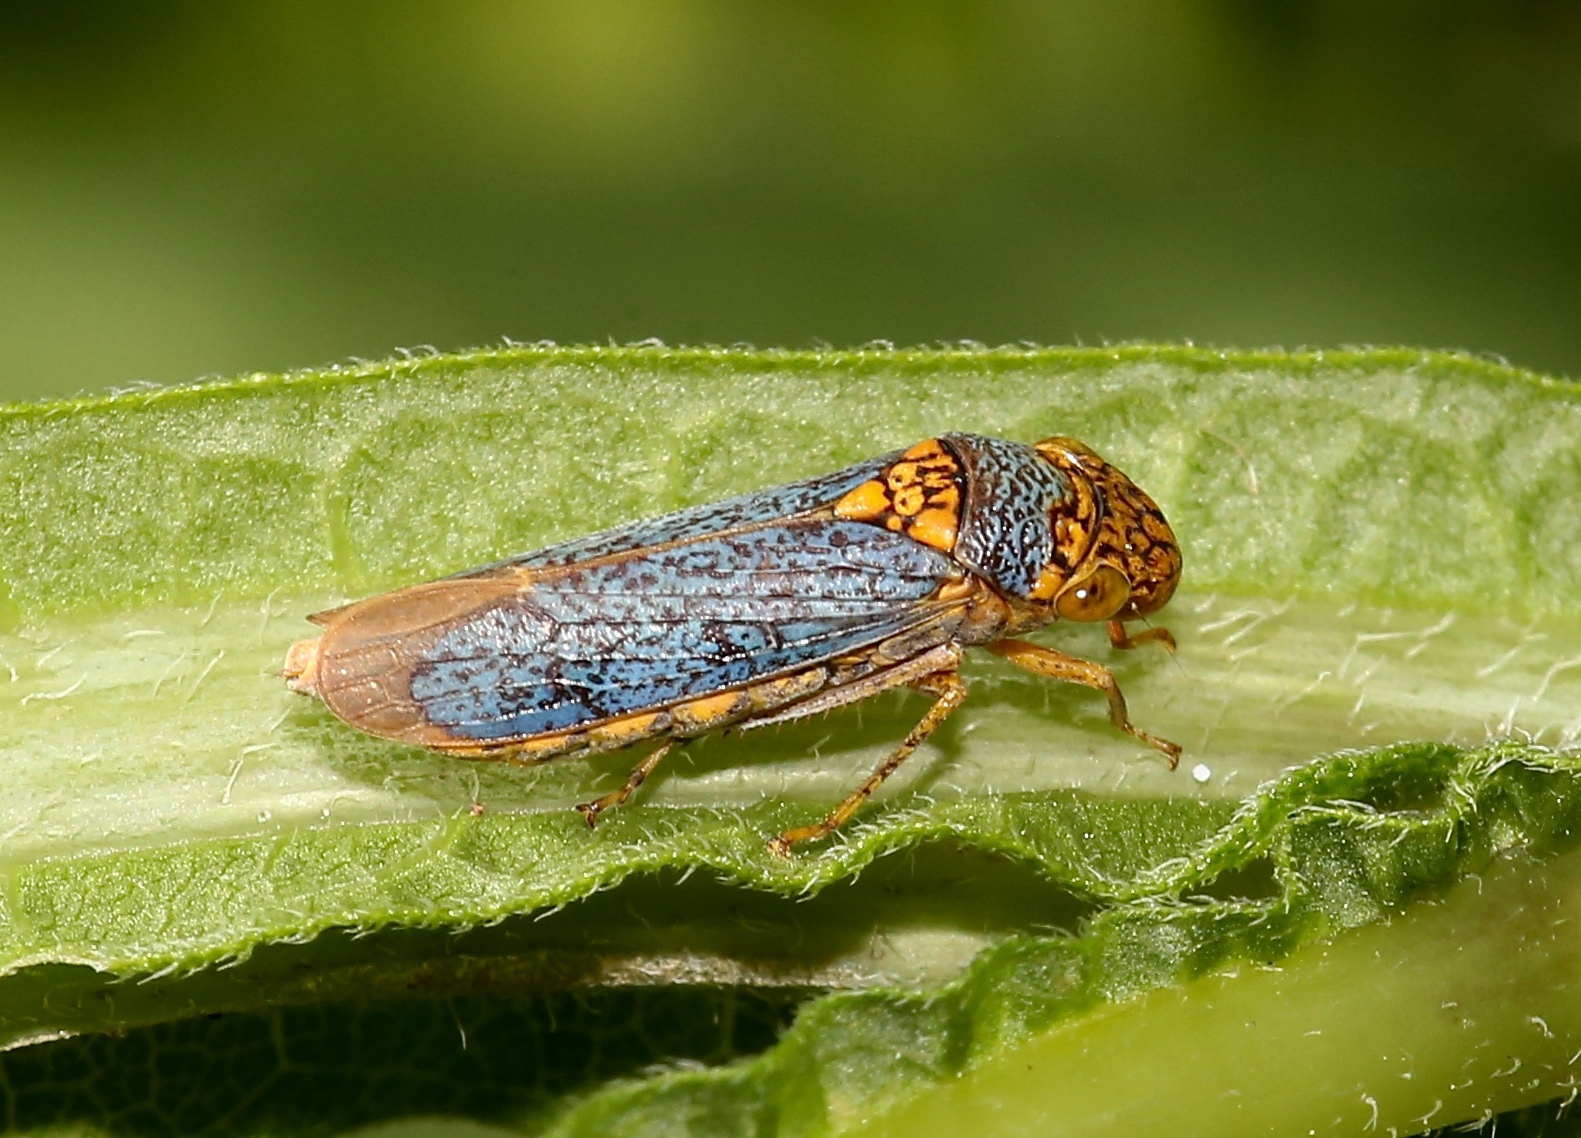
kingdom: Animalia
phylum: Arthropoda
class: Insecta
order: Hemiptera
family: Cicadellidae
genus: Oncometopia
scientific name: Oncometopia orbona
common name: Broad-headed sharpshooter
